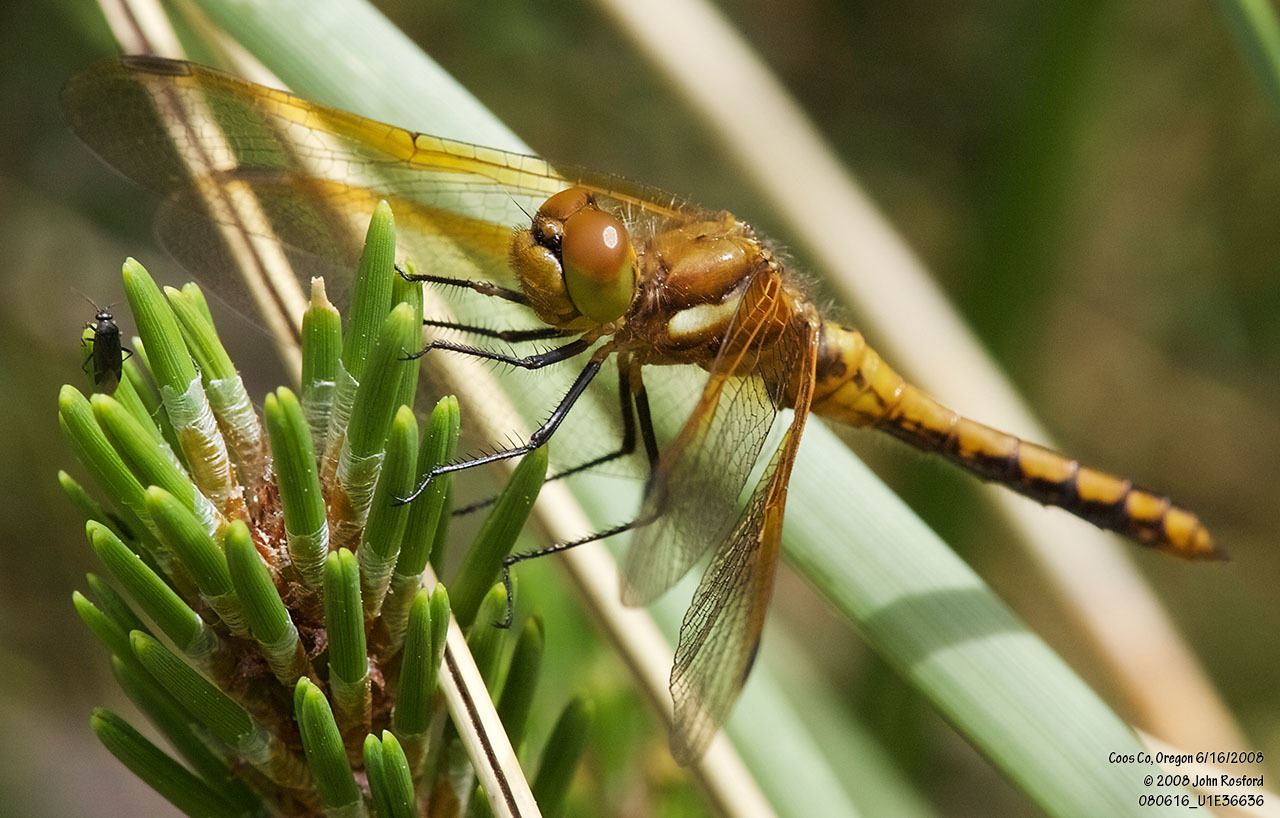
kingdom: Animalia
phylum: Arthropoda
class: Insecta
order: Odonata
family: Libellulidae
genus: Sympetrum
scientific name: Sympetrum madidum
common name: Red-veined meadowhawk
